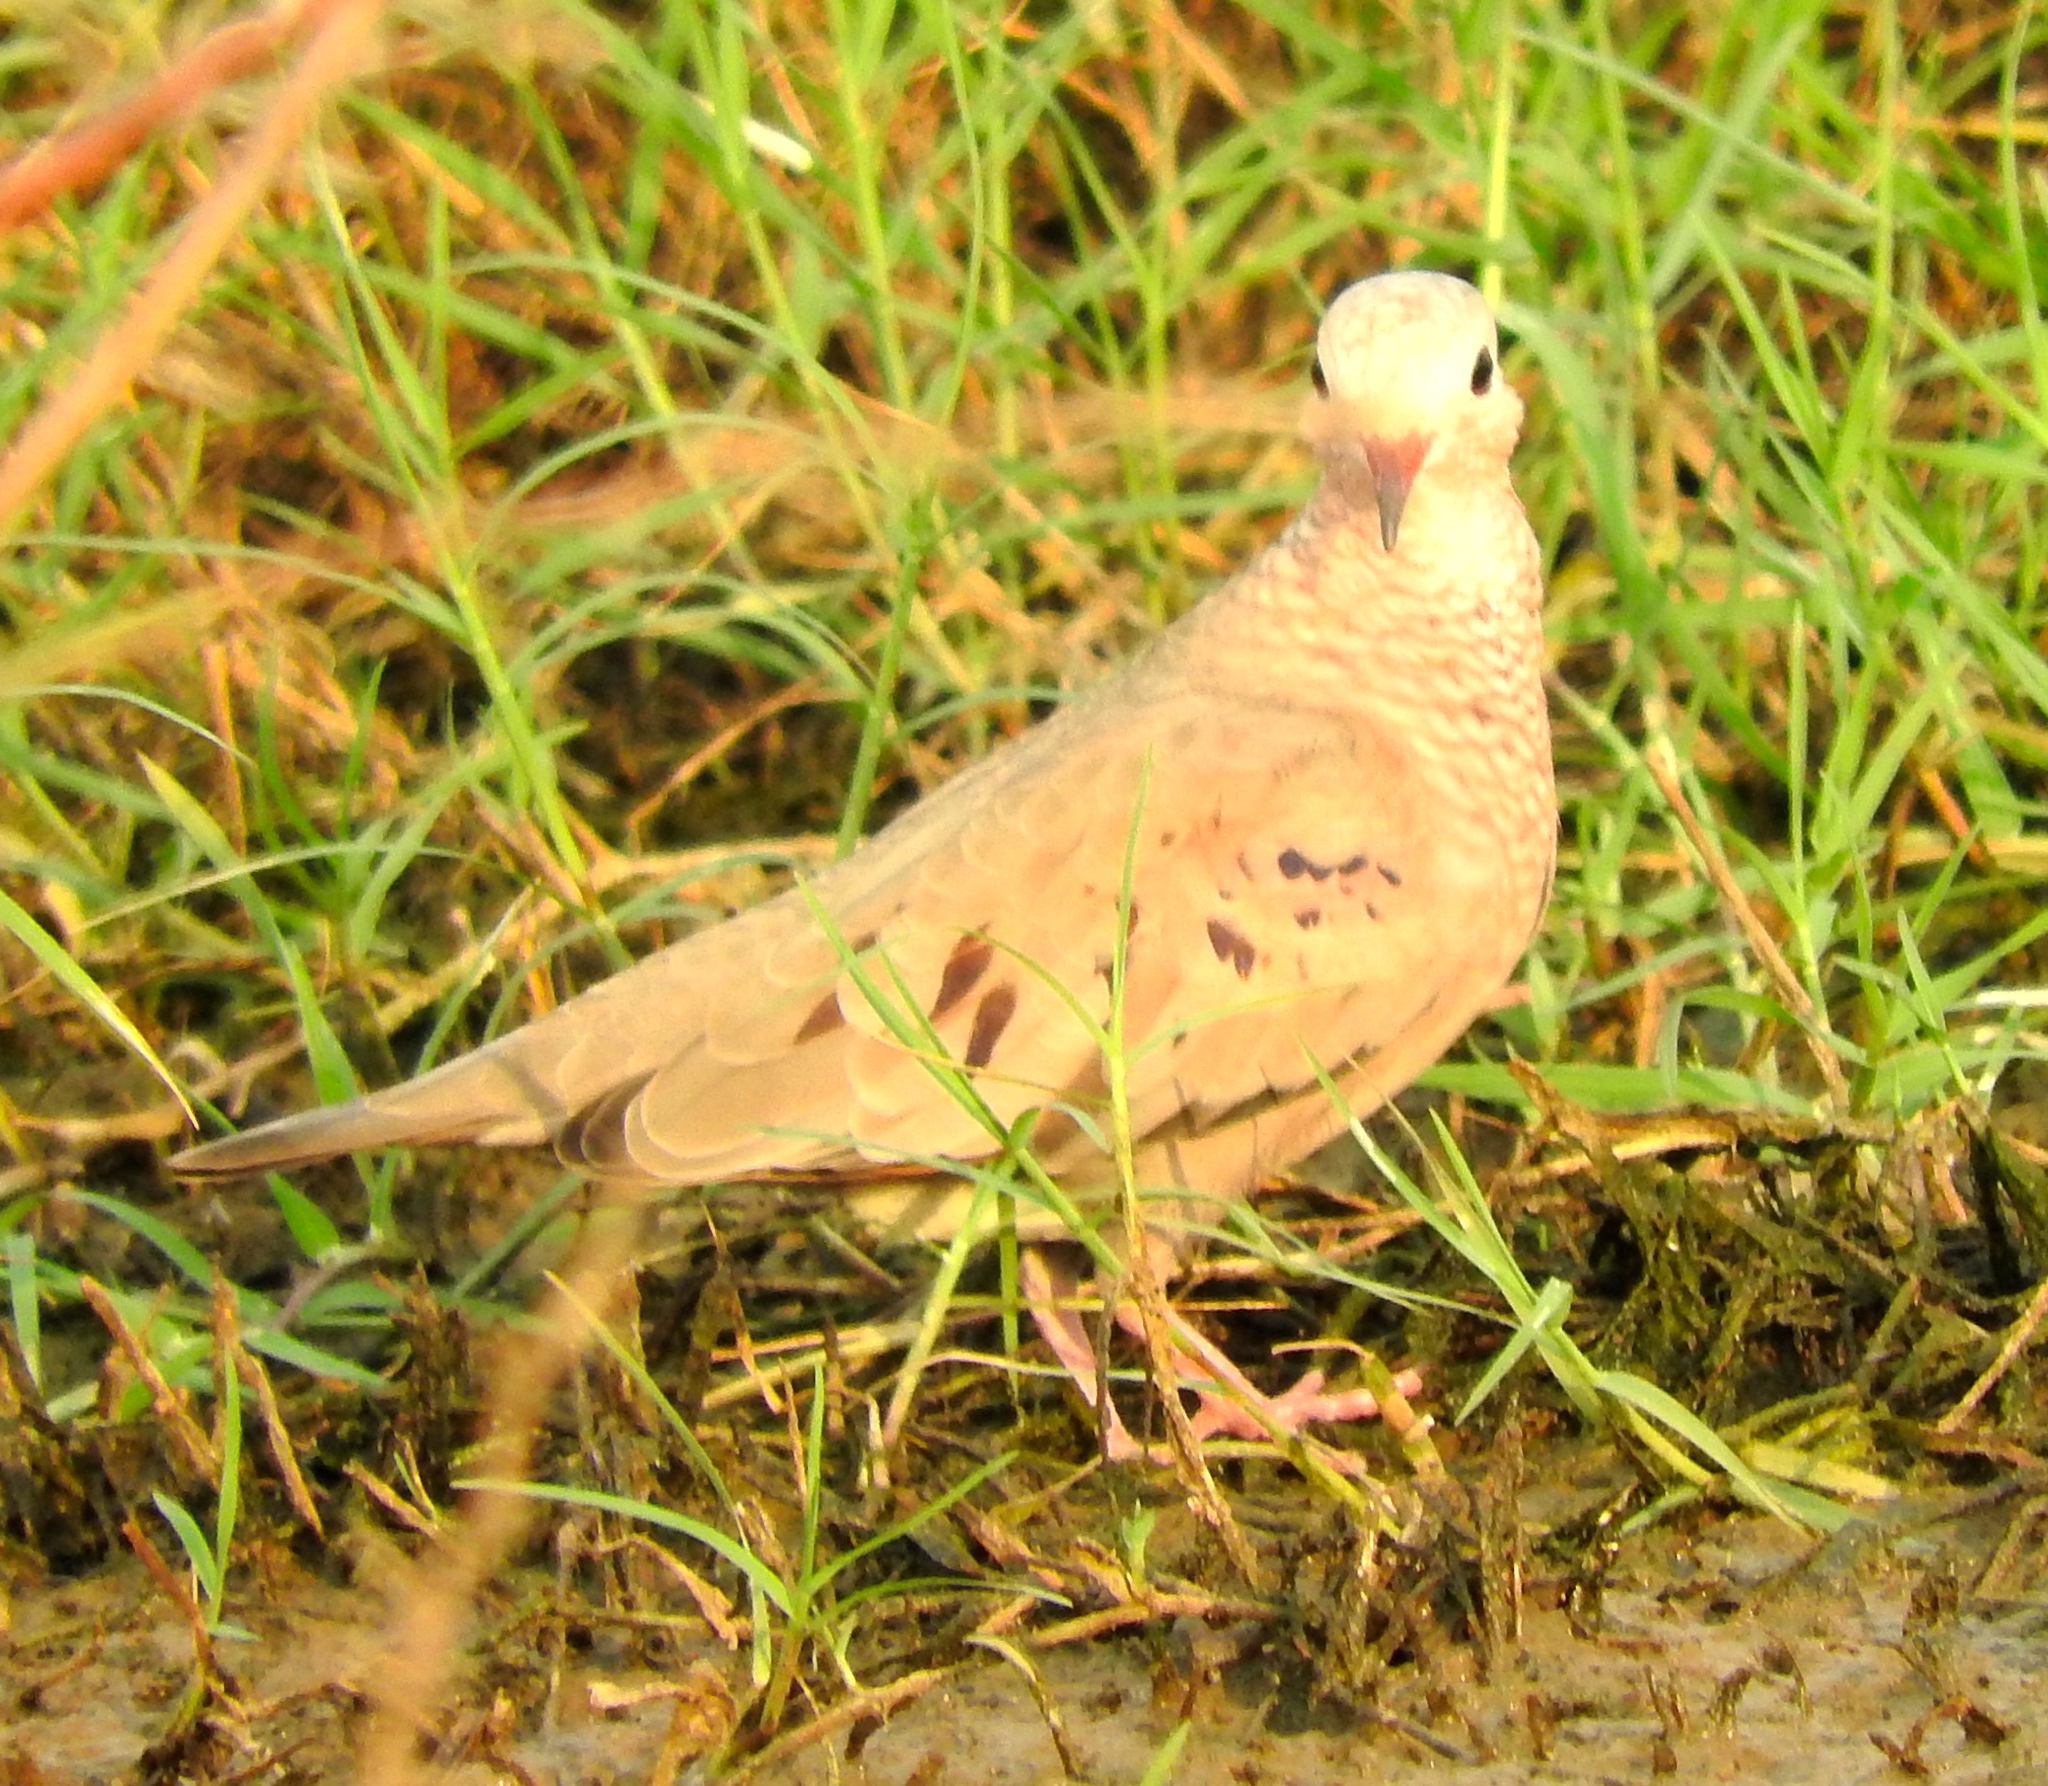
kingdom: Animalia
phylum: Chordata
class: Aves
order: Columbiformes
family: Columbidae
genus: Columbina
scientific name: Columbina passerina
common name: Common ground-dove
